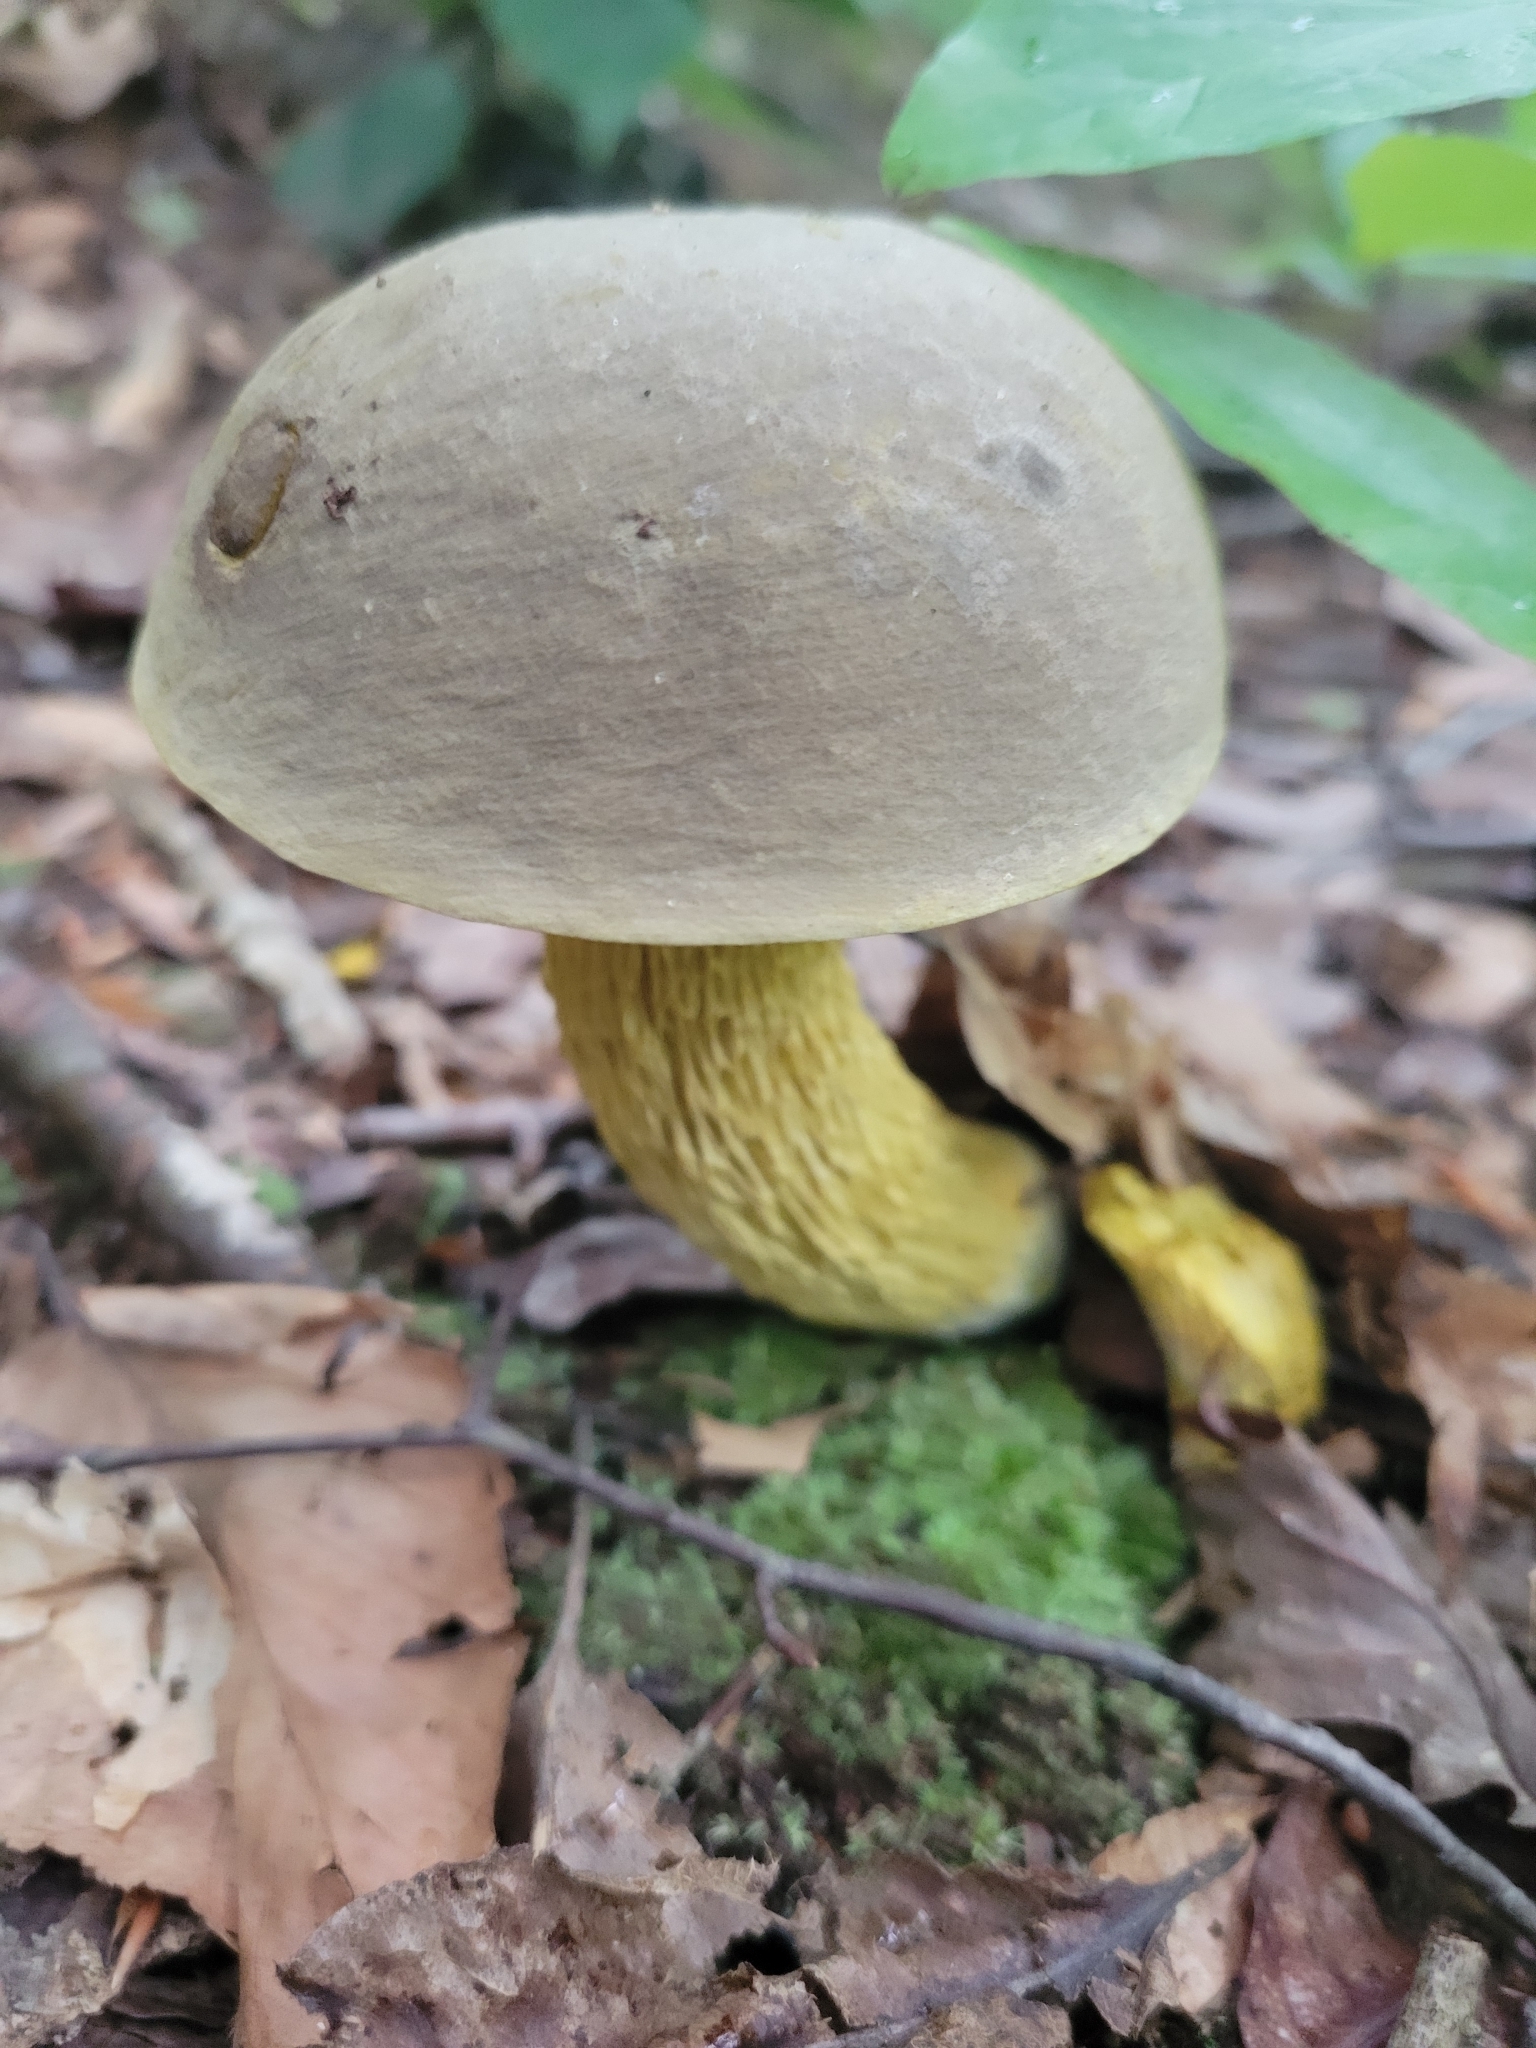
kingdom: Fungi
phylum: Basidiomycota
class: Agaricomycetes
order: Boletales
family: Boletaceae
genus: Retiboletus
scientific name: Retiboletus ornatipes
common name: Ornate-stalked bolete
